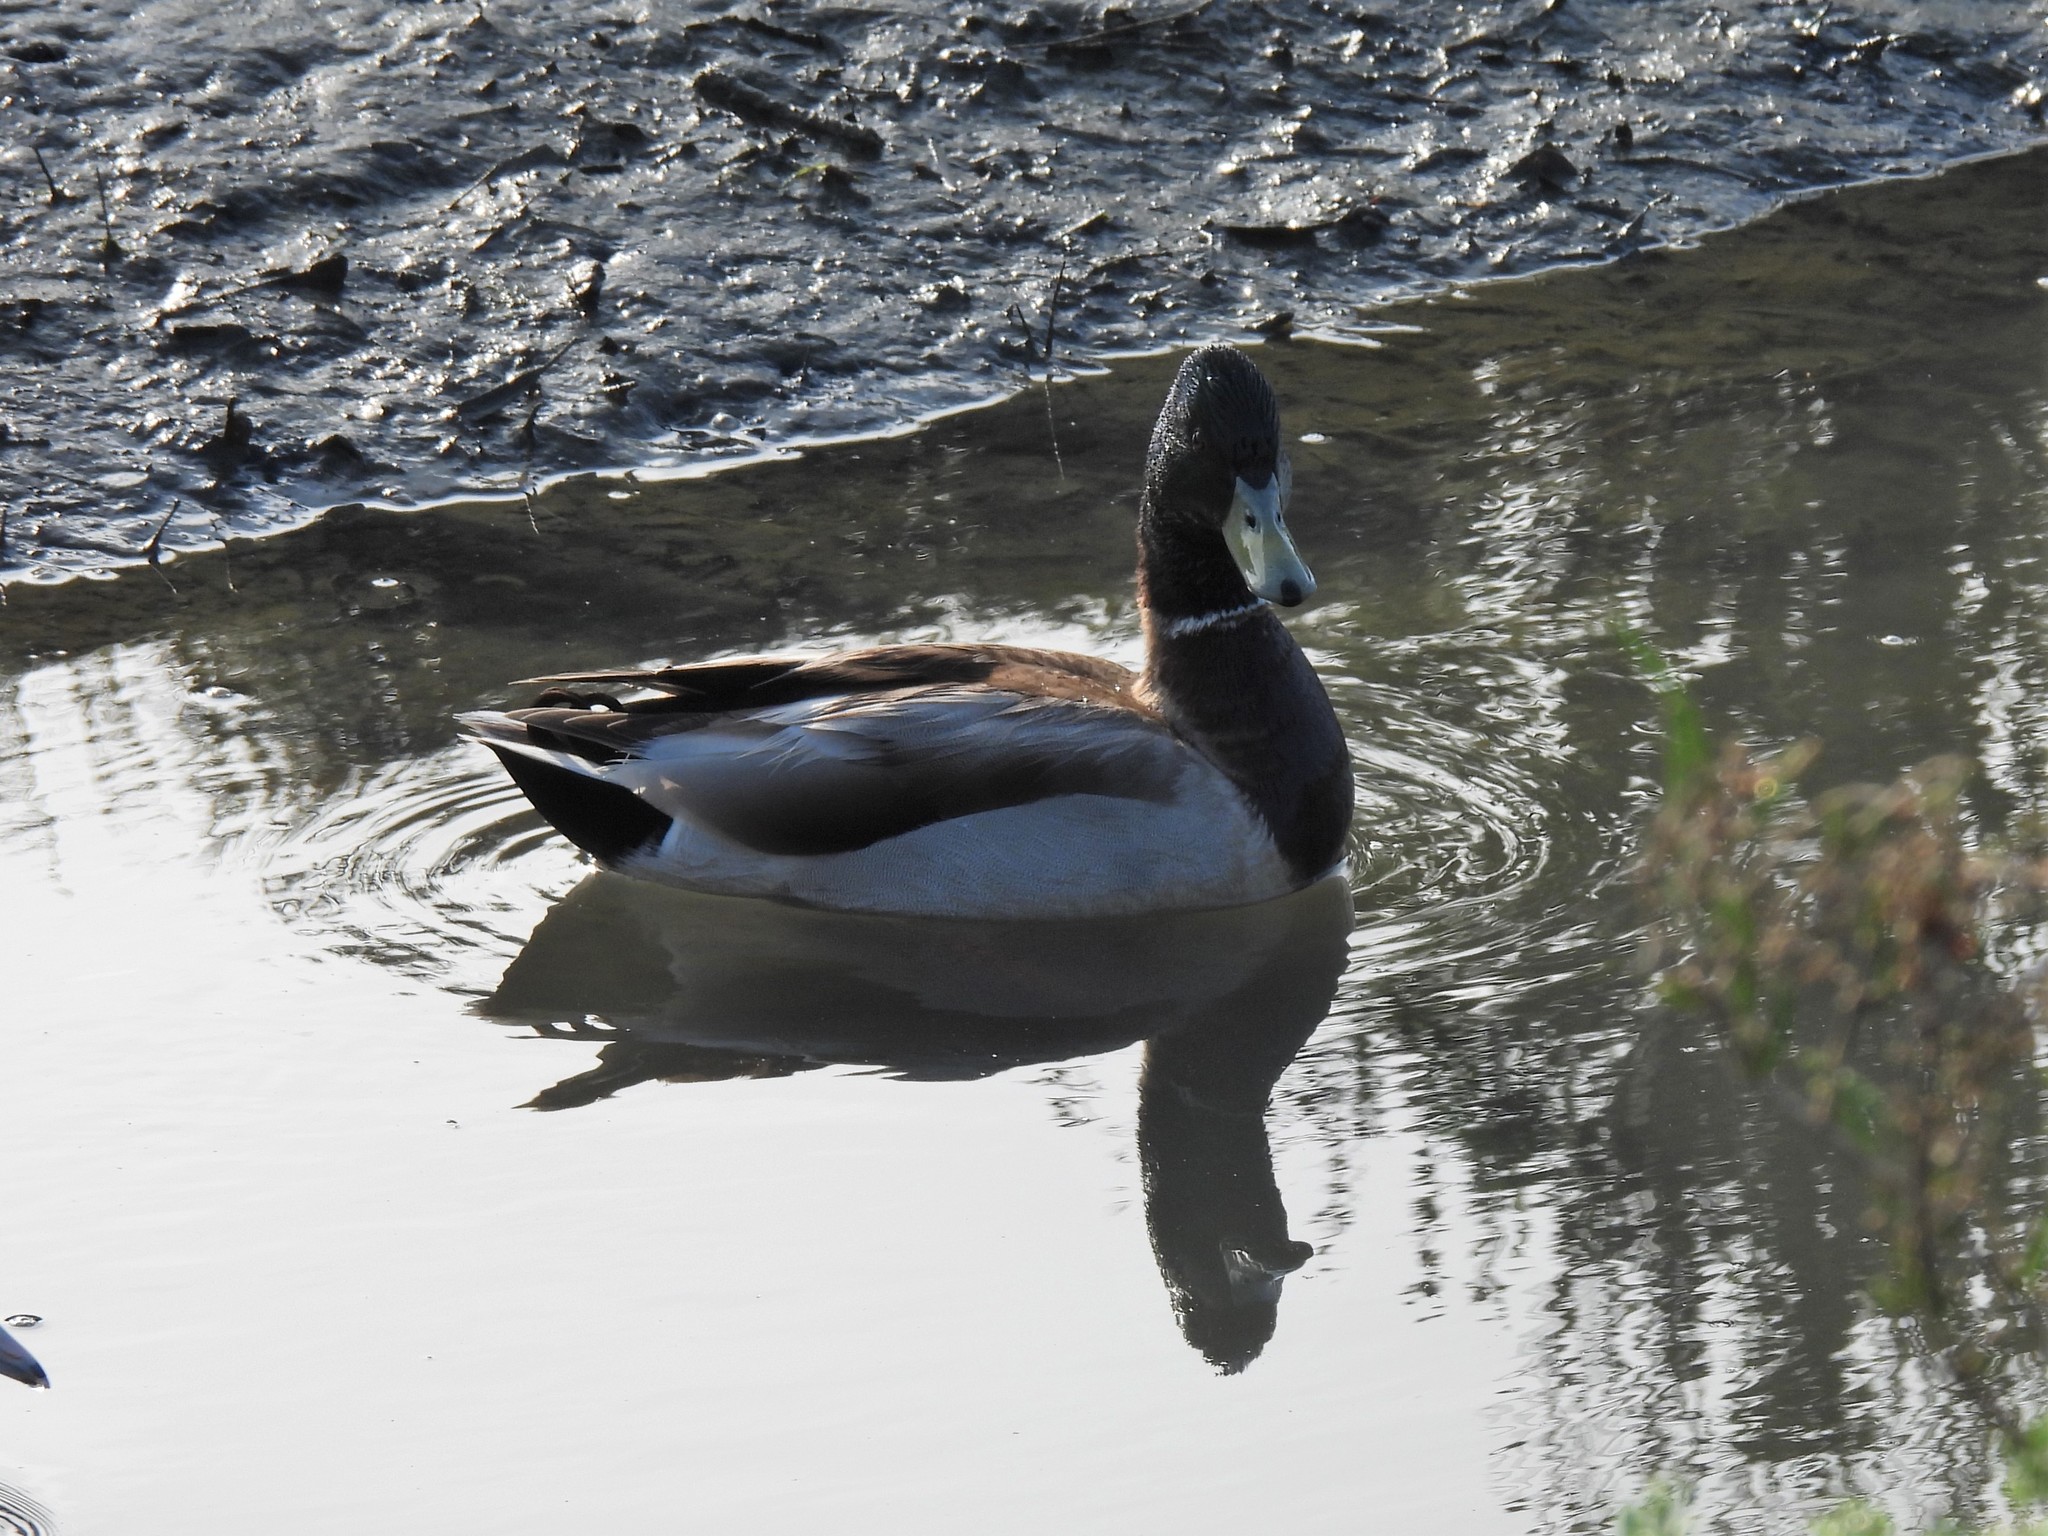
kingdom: Animalia
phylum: Chordata
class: Aves
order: Anseriformes
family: Anatidae
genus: Anas
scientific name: Anas platyrhynchos
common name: Mallard
